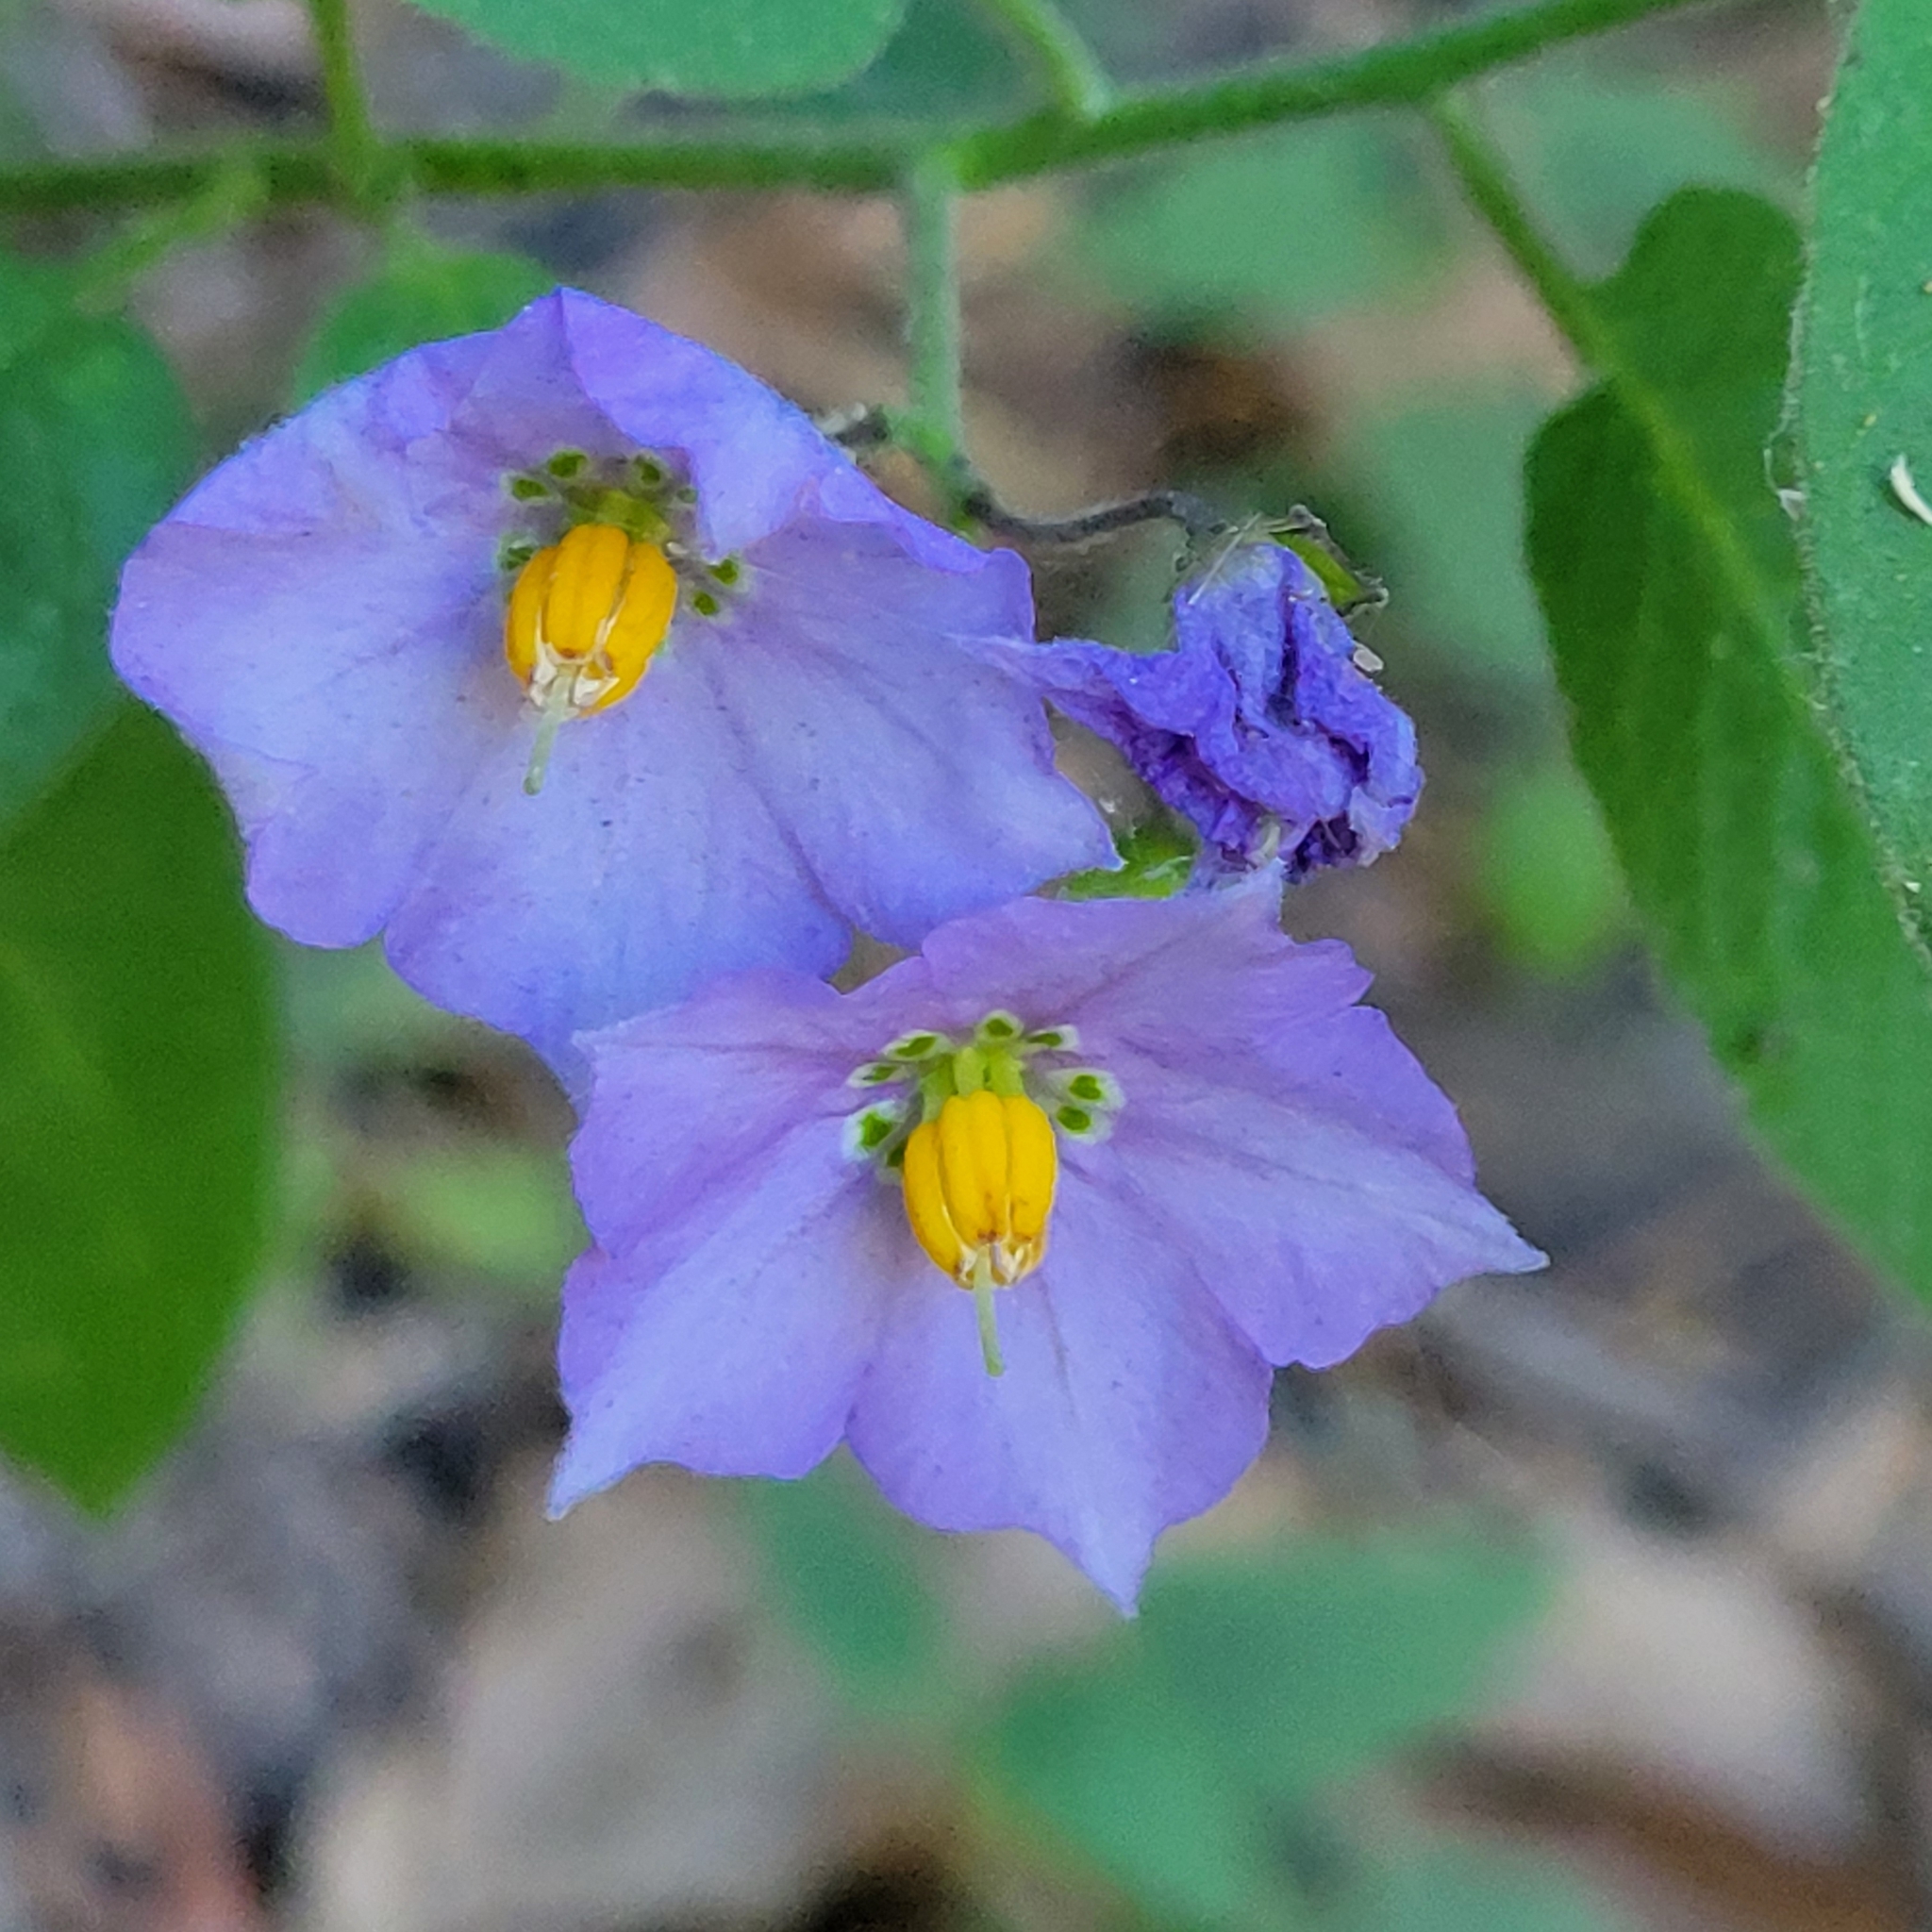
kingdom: Plantae
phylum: Tracheophyta
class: Magnoliopsida
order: Solanales
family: Solanaceae
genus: Solanum
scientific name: Solanum umbelliferum
